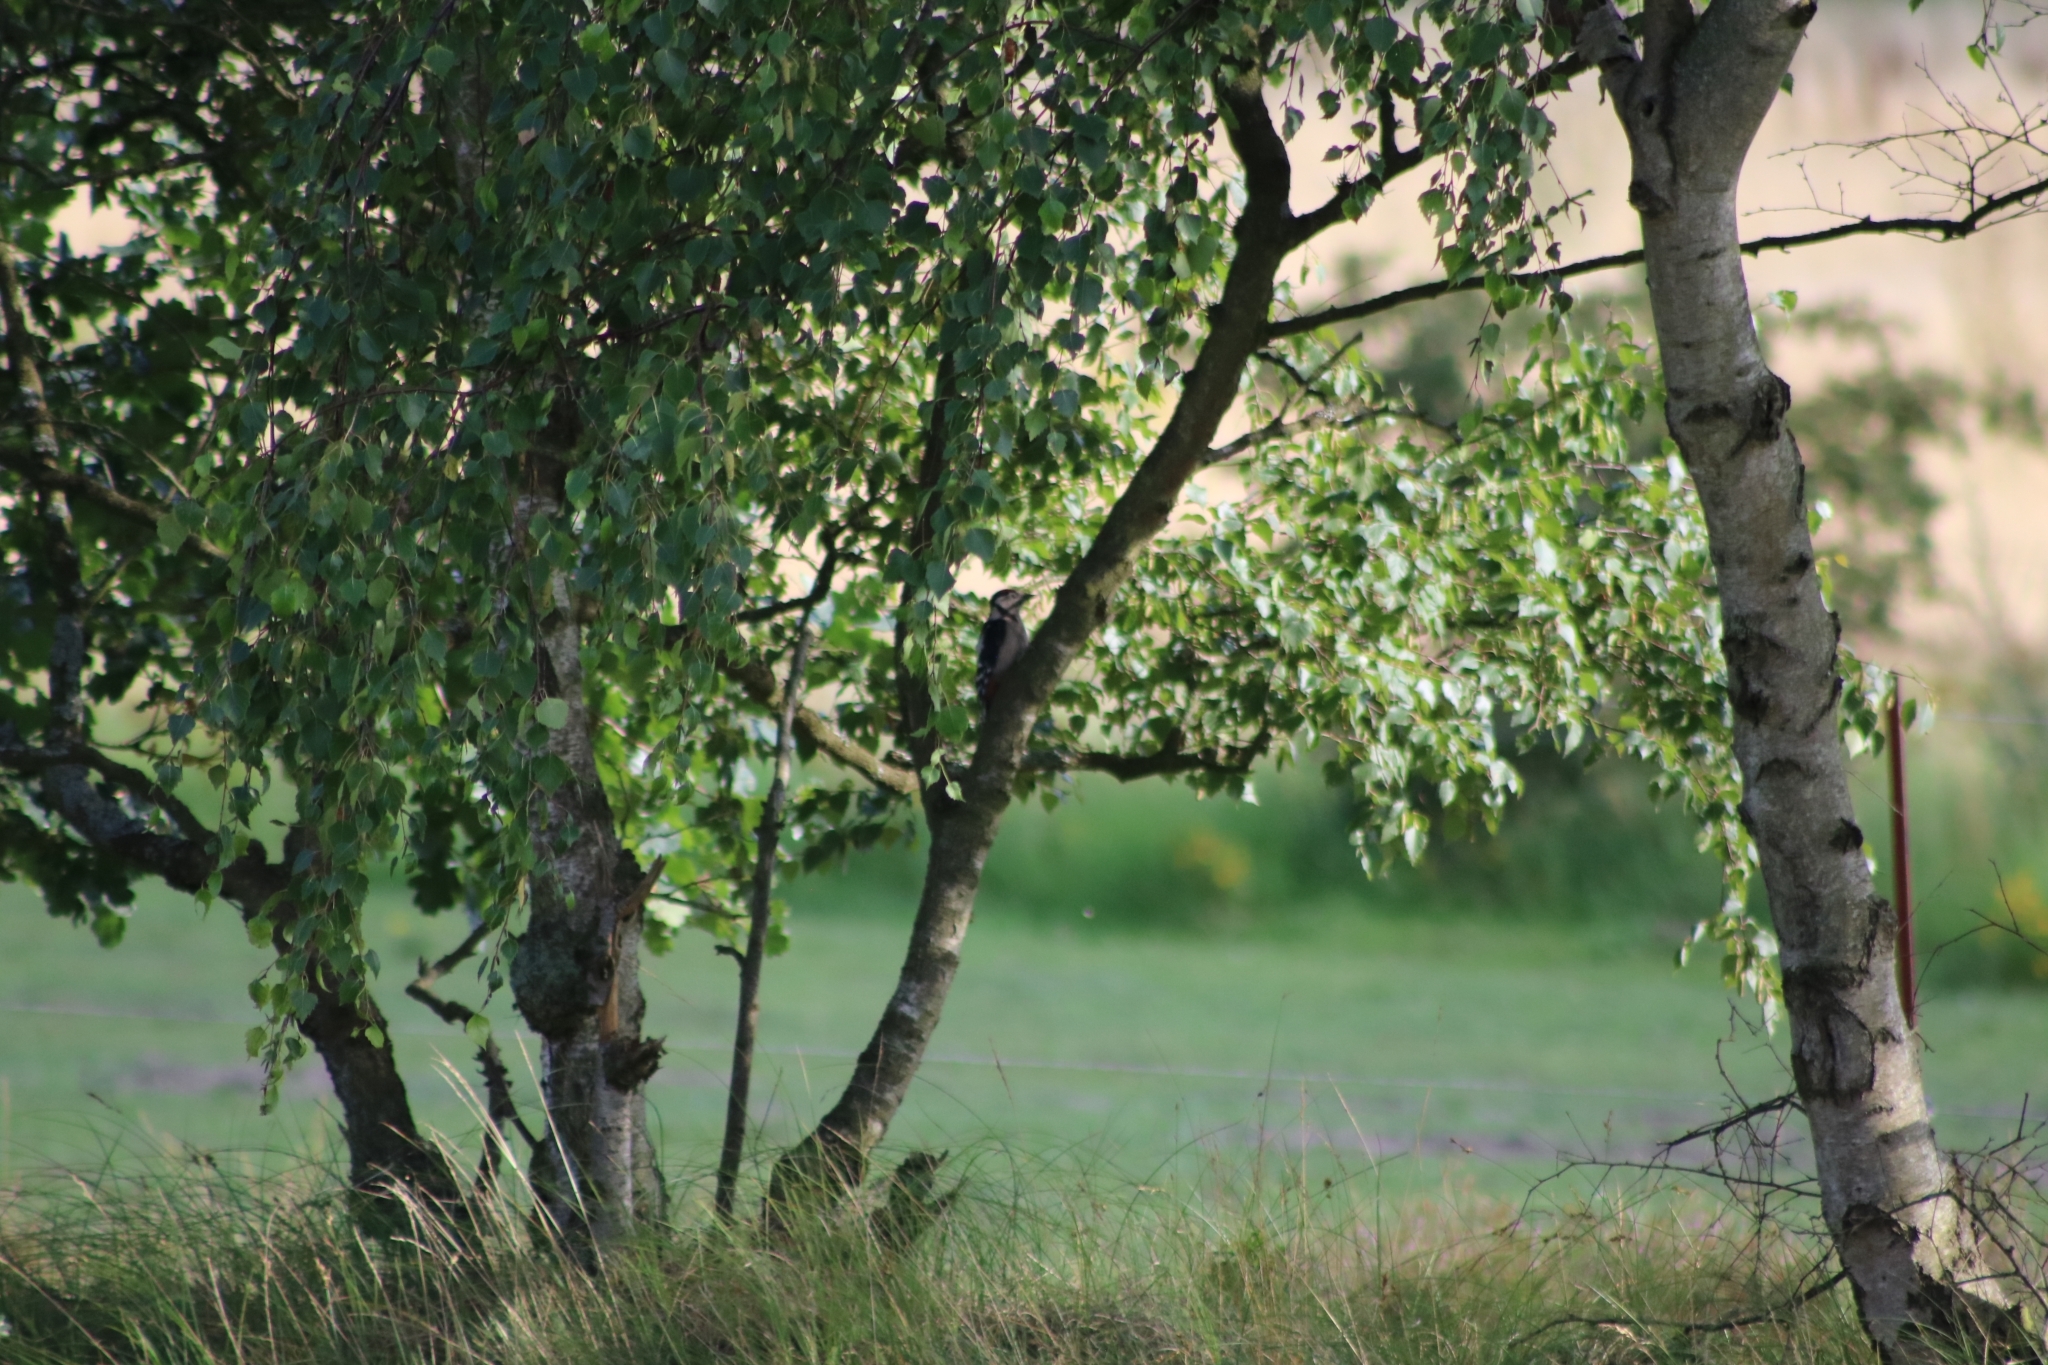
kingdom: Animalia
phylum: Chordata
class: Aves
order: Piciformes
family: Picidae
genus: Dendrocopos
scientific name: Dendrocopos major
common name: Great spotted woodpecker
